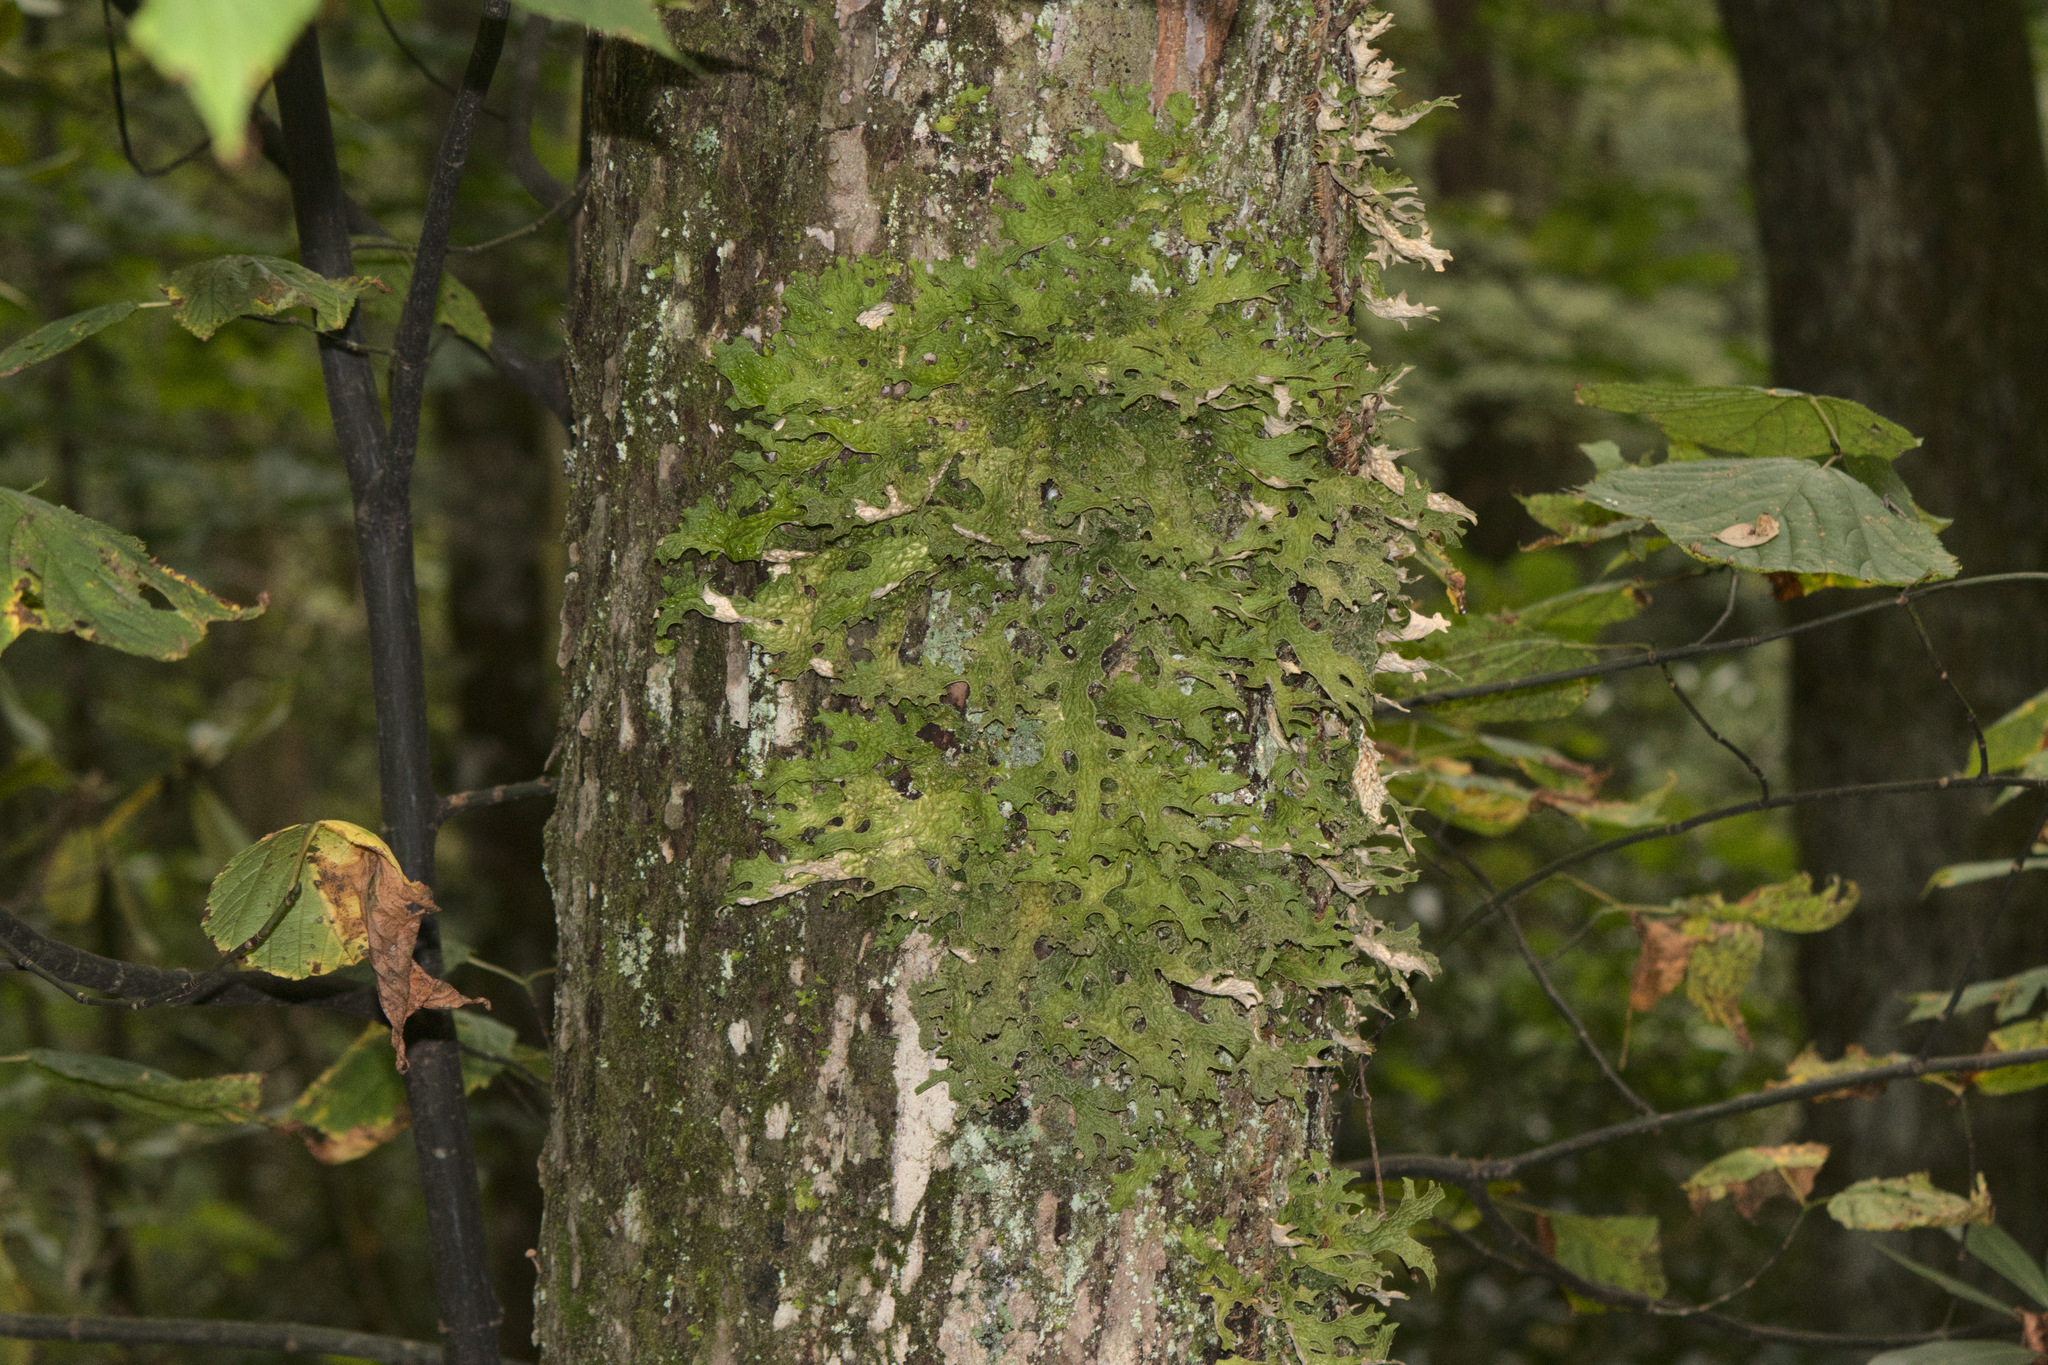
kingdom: Fungi
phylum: Ascomycota
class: Lecanoromycetes
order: Peltigerales
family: Lobariaceae
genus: Lobaria
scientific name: Lobaria pulmonaria
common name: Lungwort
